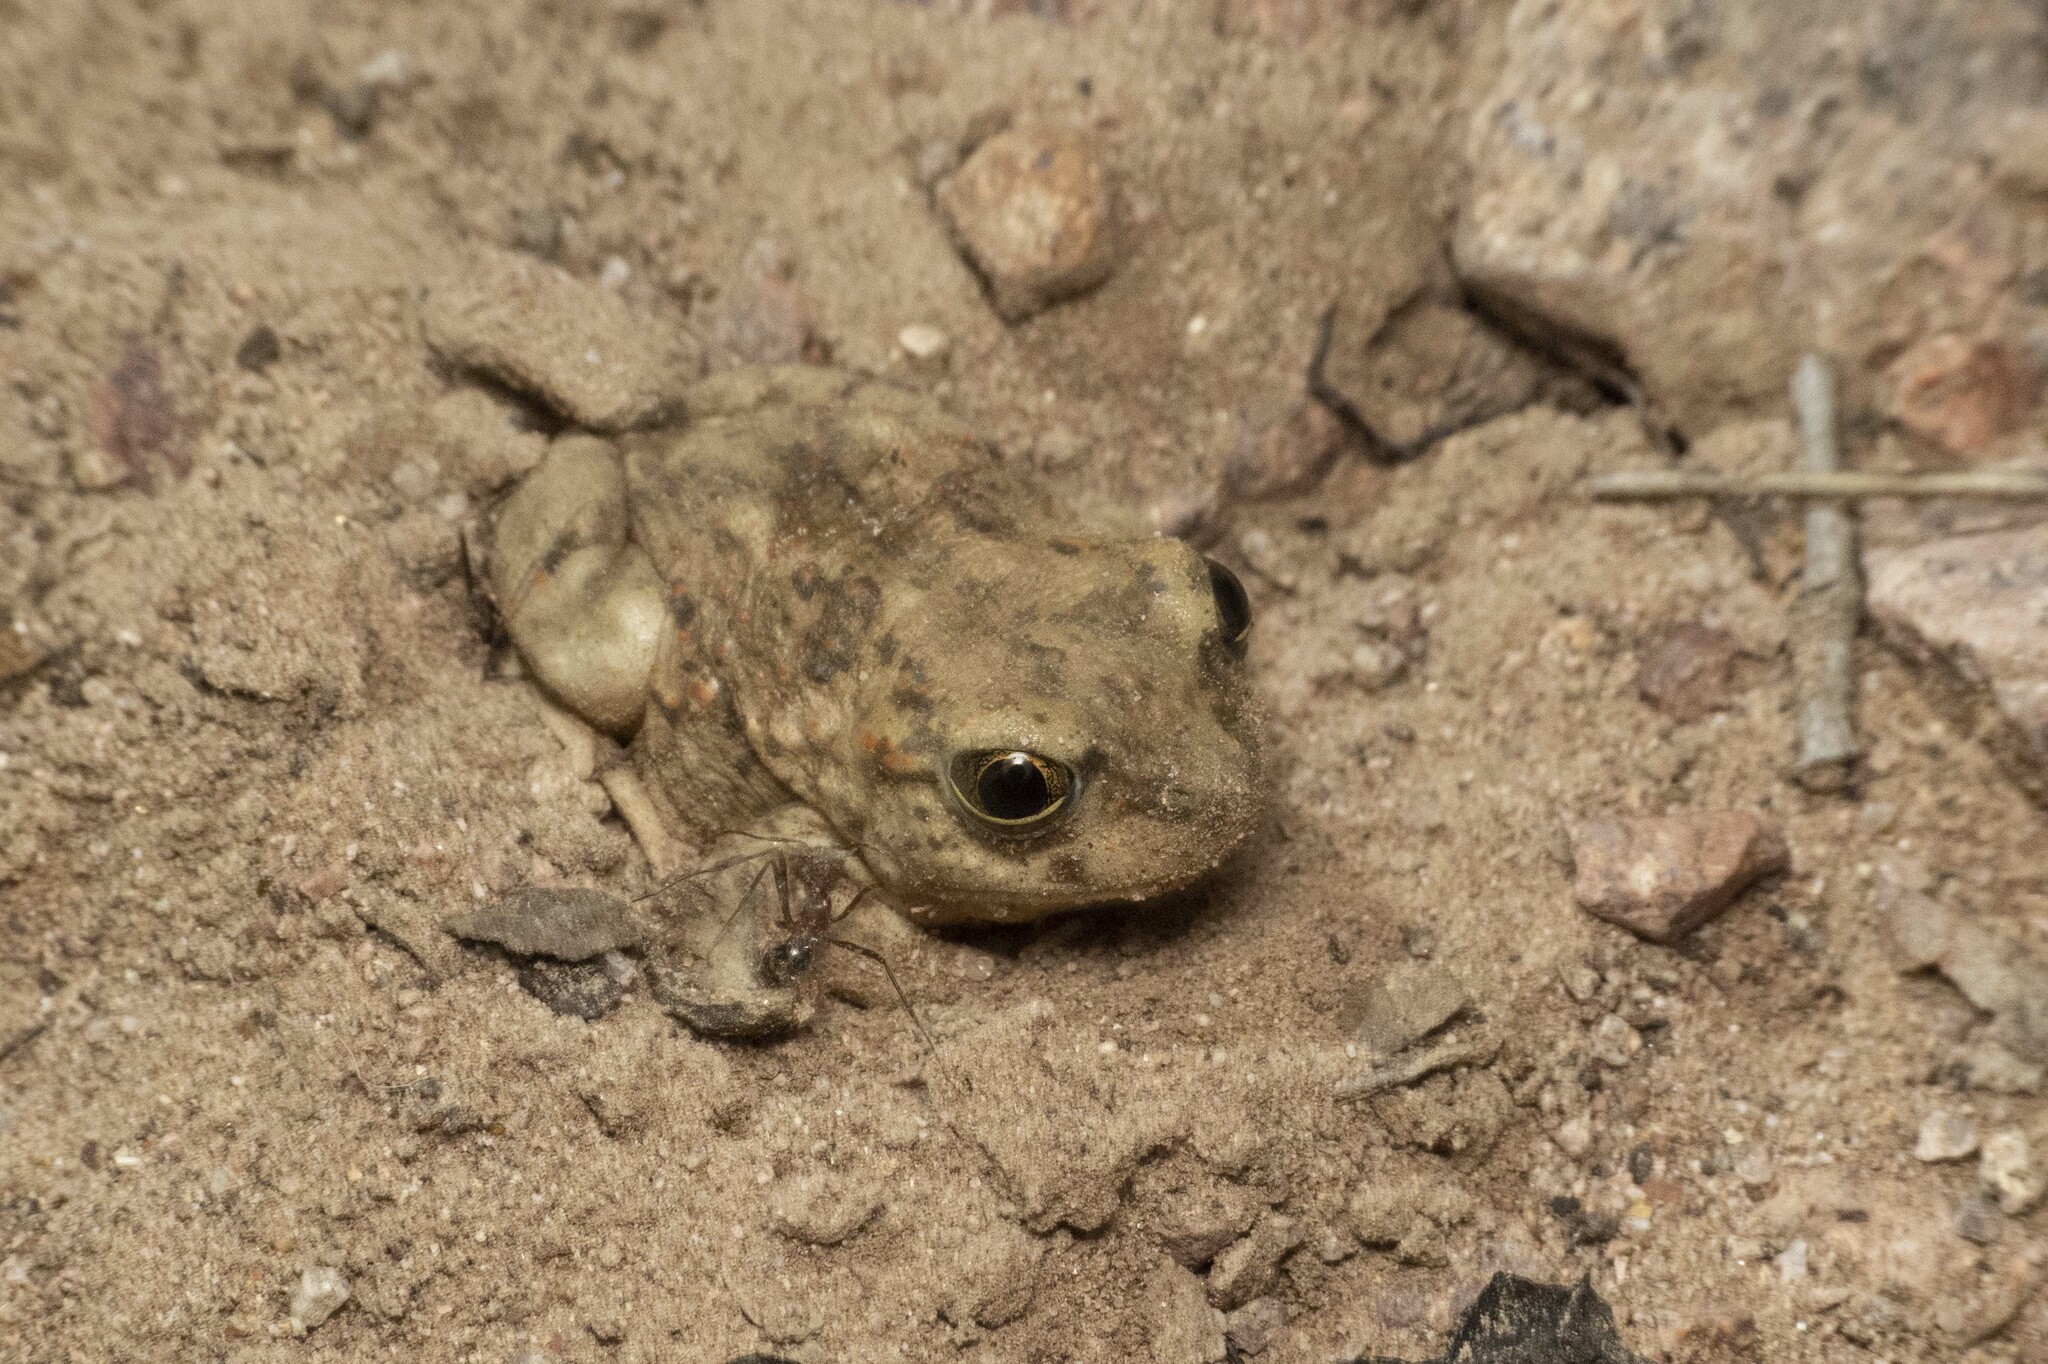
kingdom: Animalia
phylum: Chordata
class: Amphibia
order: Anura
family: Scaphiopodidae
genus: Scaphiopus
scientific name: Scaphiopus couchii
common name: Couch's spadefoot toad
